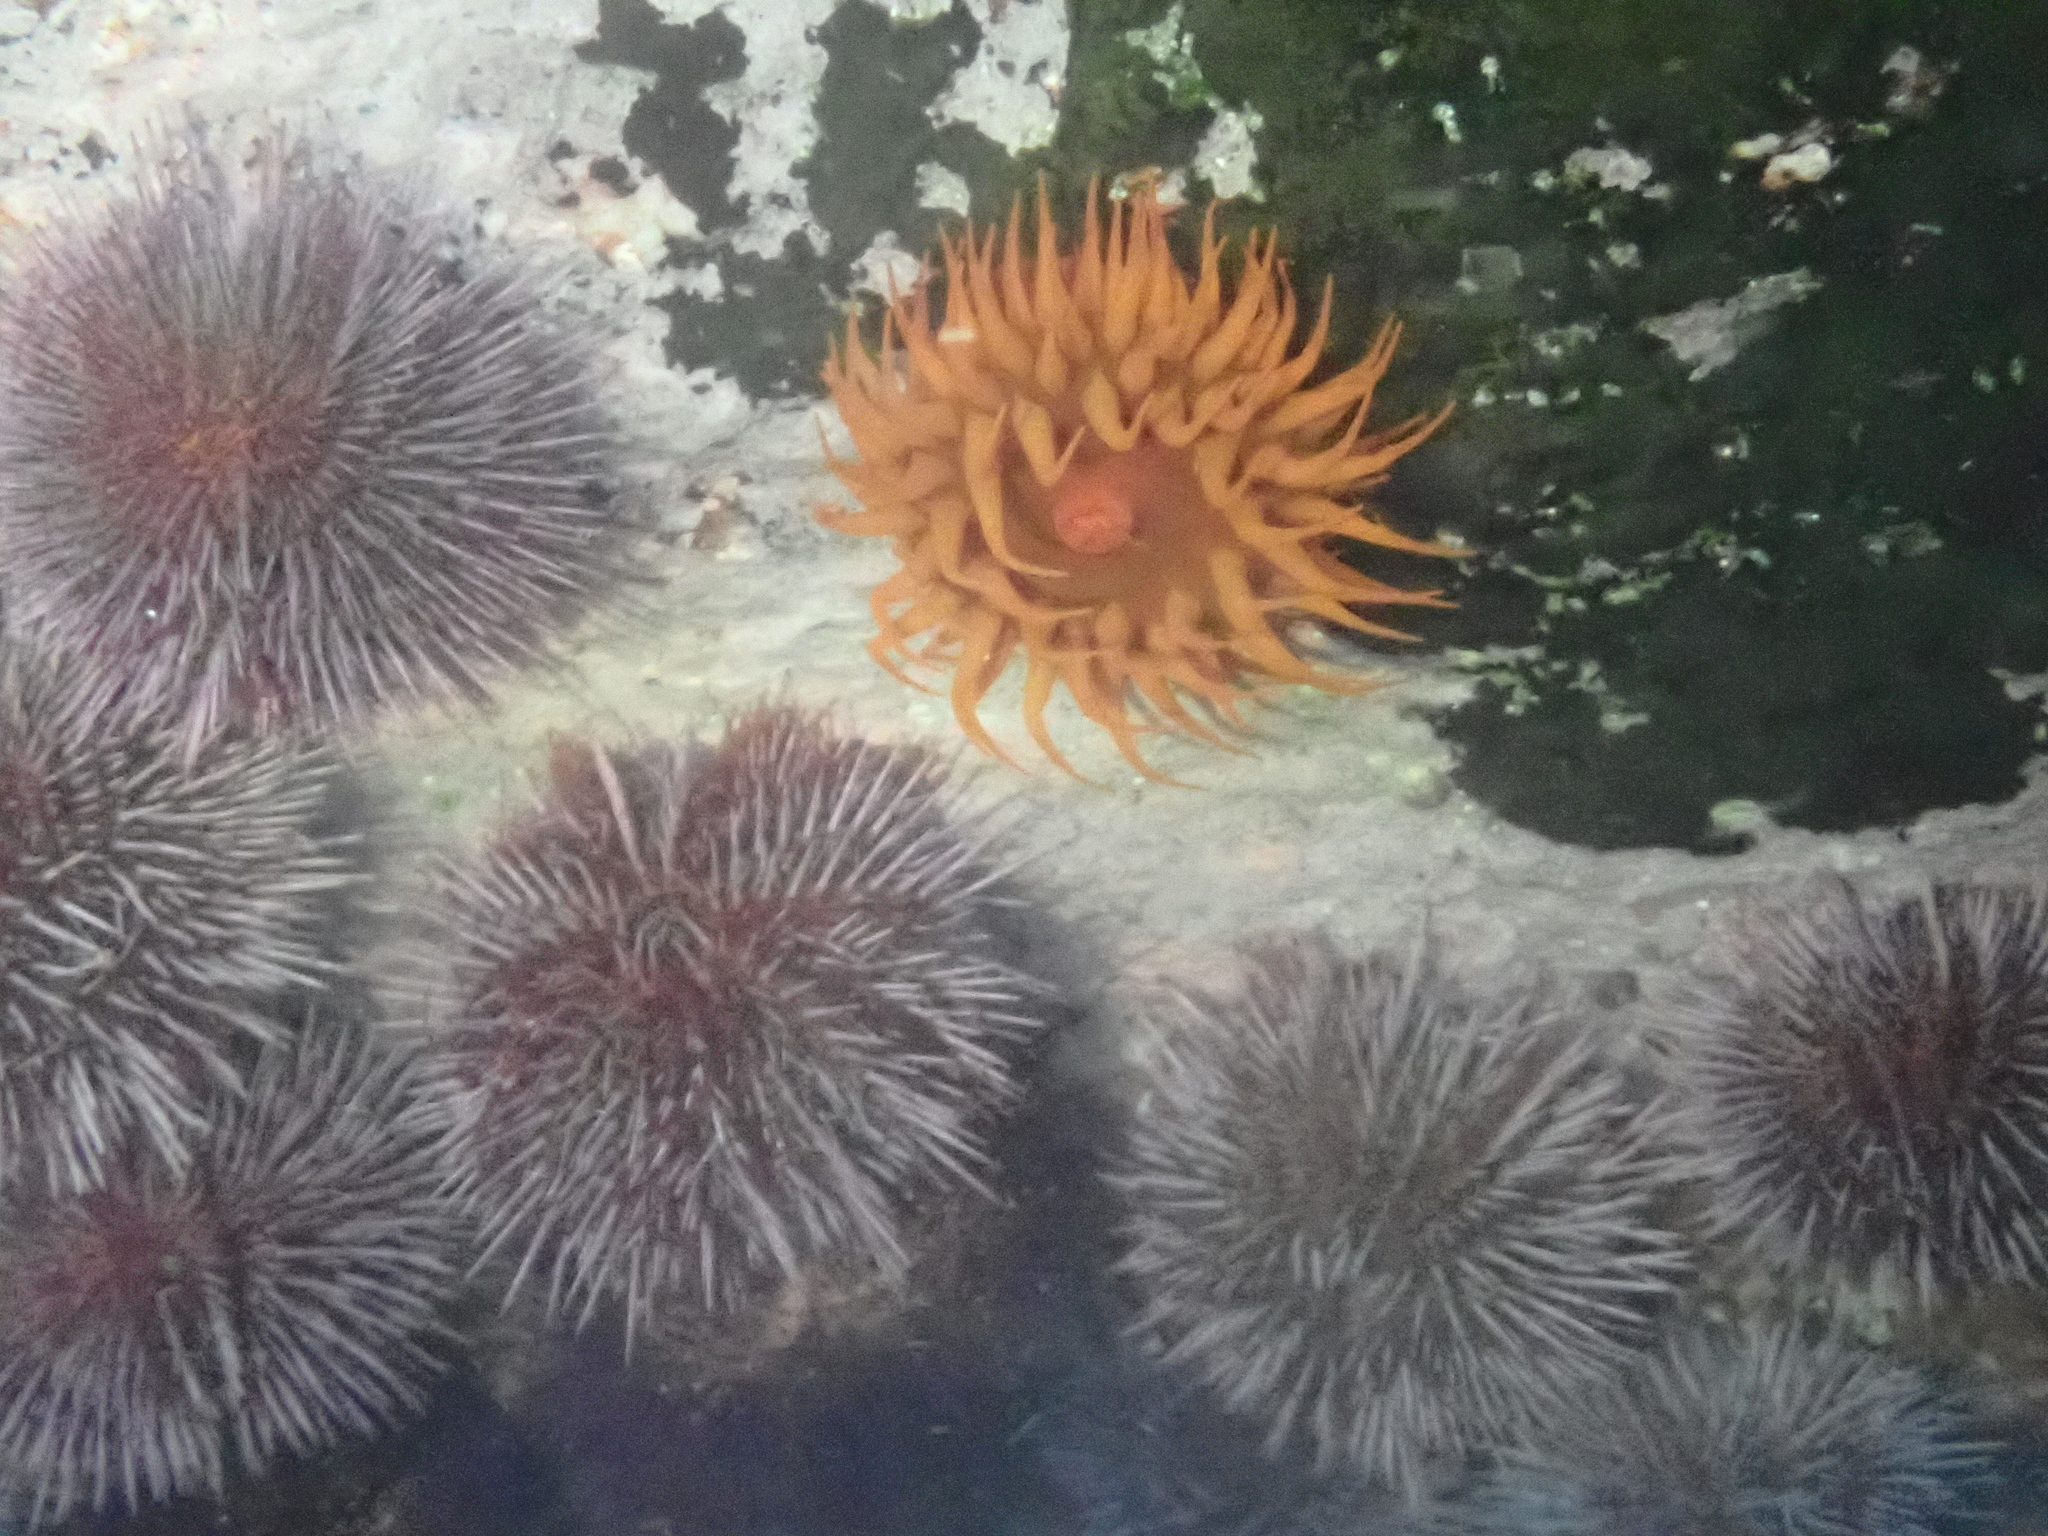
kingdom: Animalia
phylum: Echinodermata
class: Echinoidea
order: Camarodonta
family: Parechinidae
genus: Parechinus
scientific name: Parechinus angulosus
